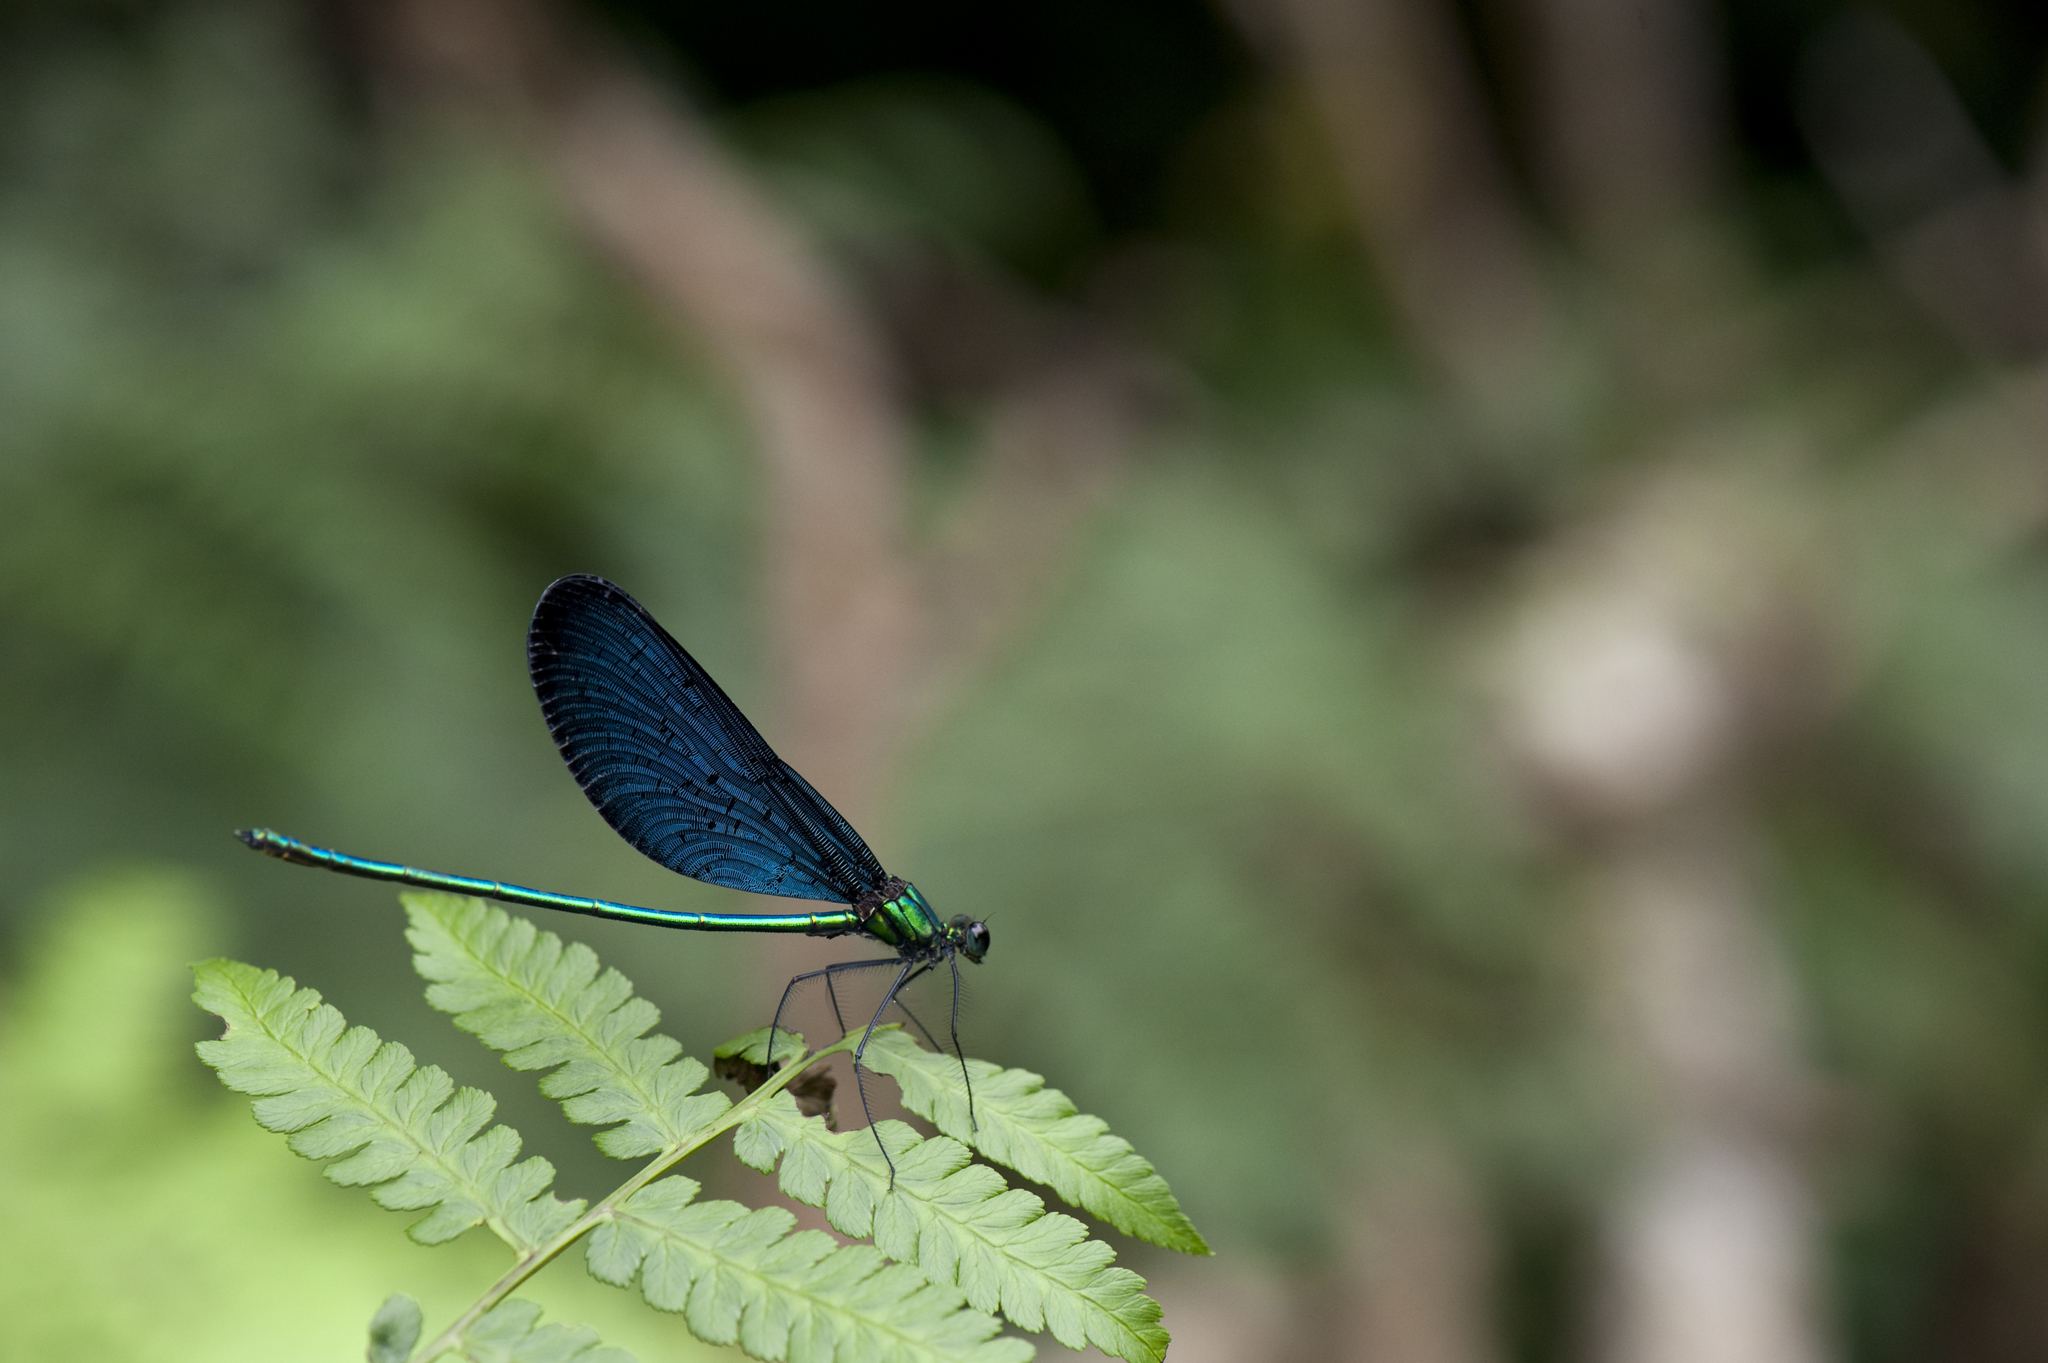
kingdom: Animalia
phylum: Arthropoda
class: Insecta
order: Odonata
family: Calopterygidae
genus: Matrona
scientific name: Matrona cyanoptera
